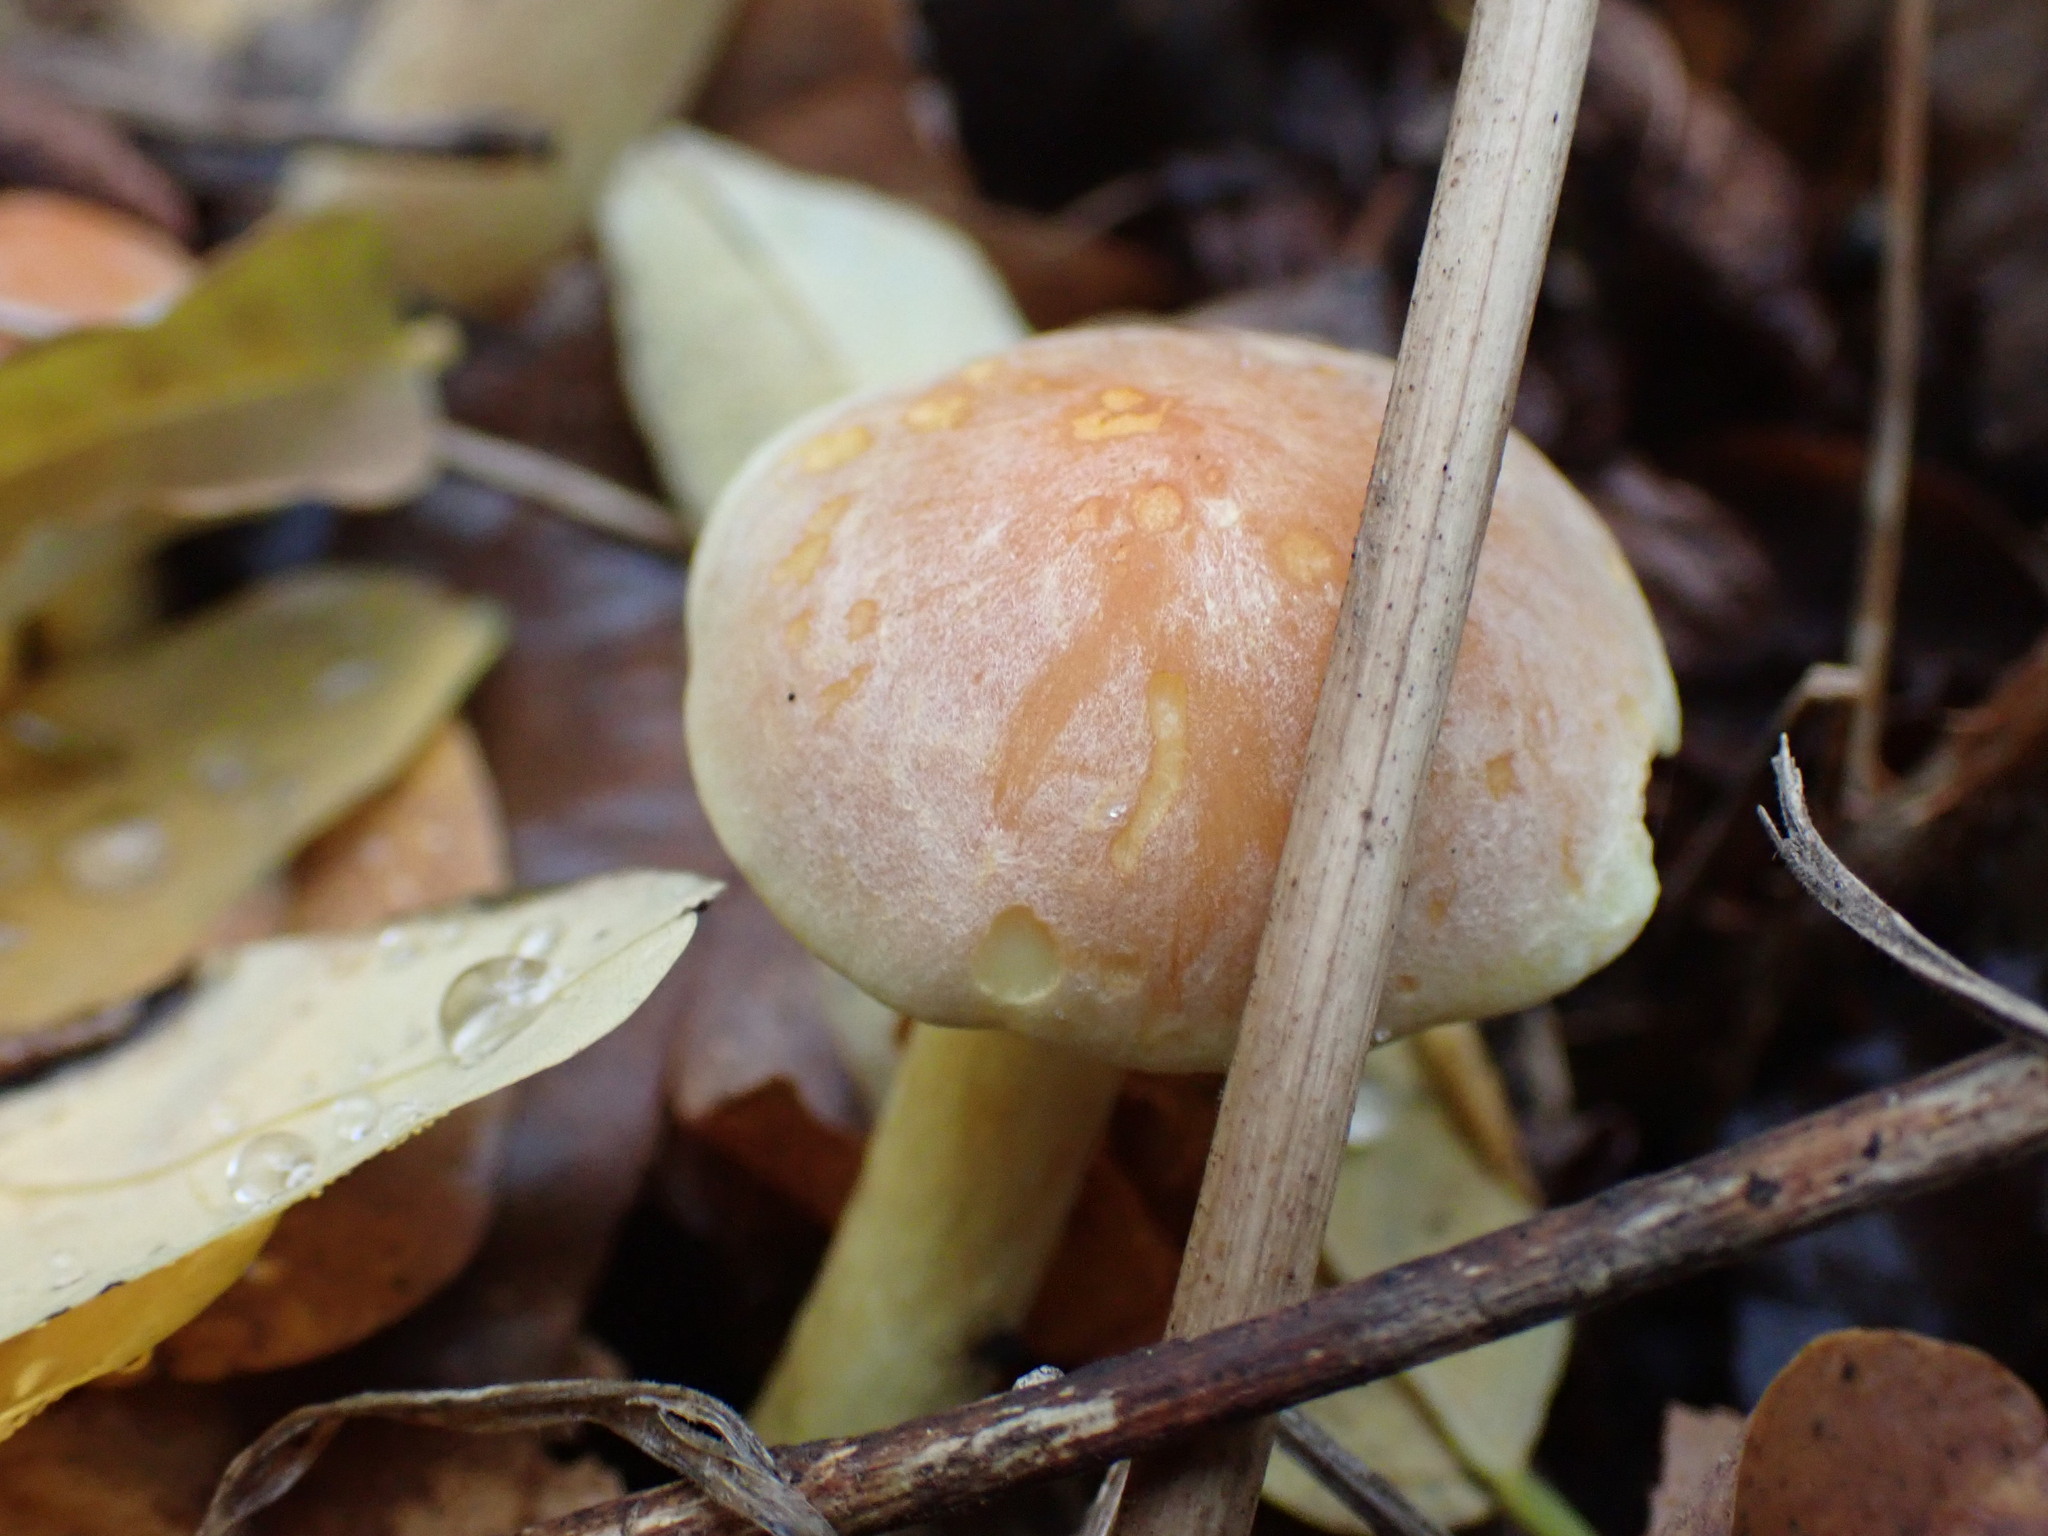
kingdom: Fungi
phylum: Basidiomycota
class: Agaricomycetes
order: Agaricales
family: Strophariaceae
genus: Hypholoma
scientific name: Hypholoma fasciculare
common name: Sulphur tuft
